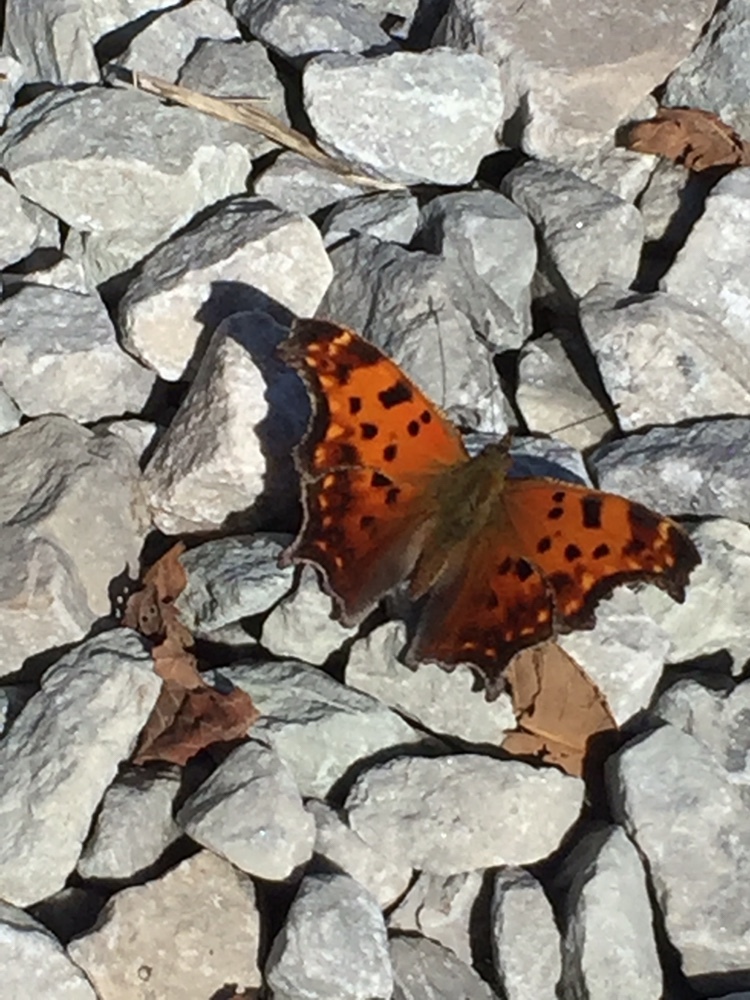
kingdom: Animalia
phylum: Arthropoda
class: Insecta
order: Lepidoptera
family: Nymphalidae
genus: Polygonia
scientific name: Polygonia comma
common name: Eastern comma
